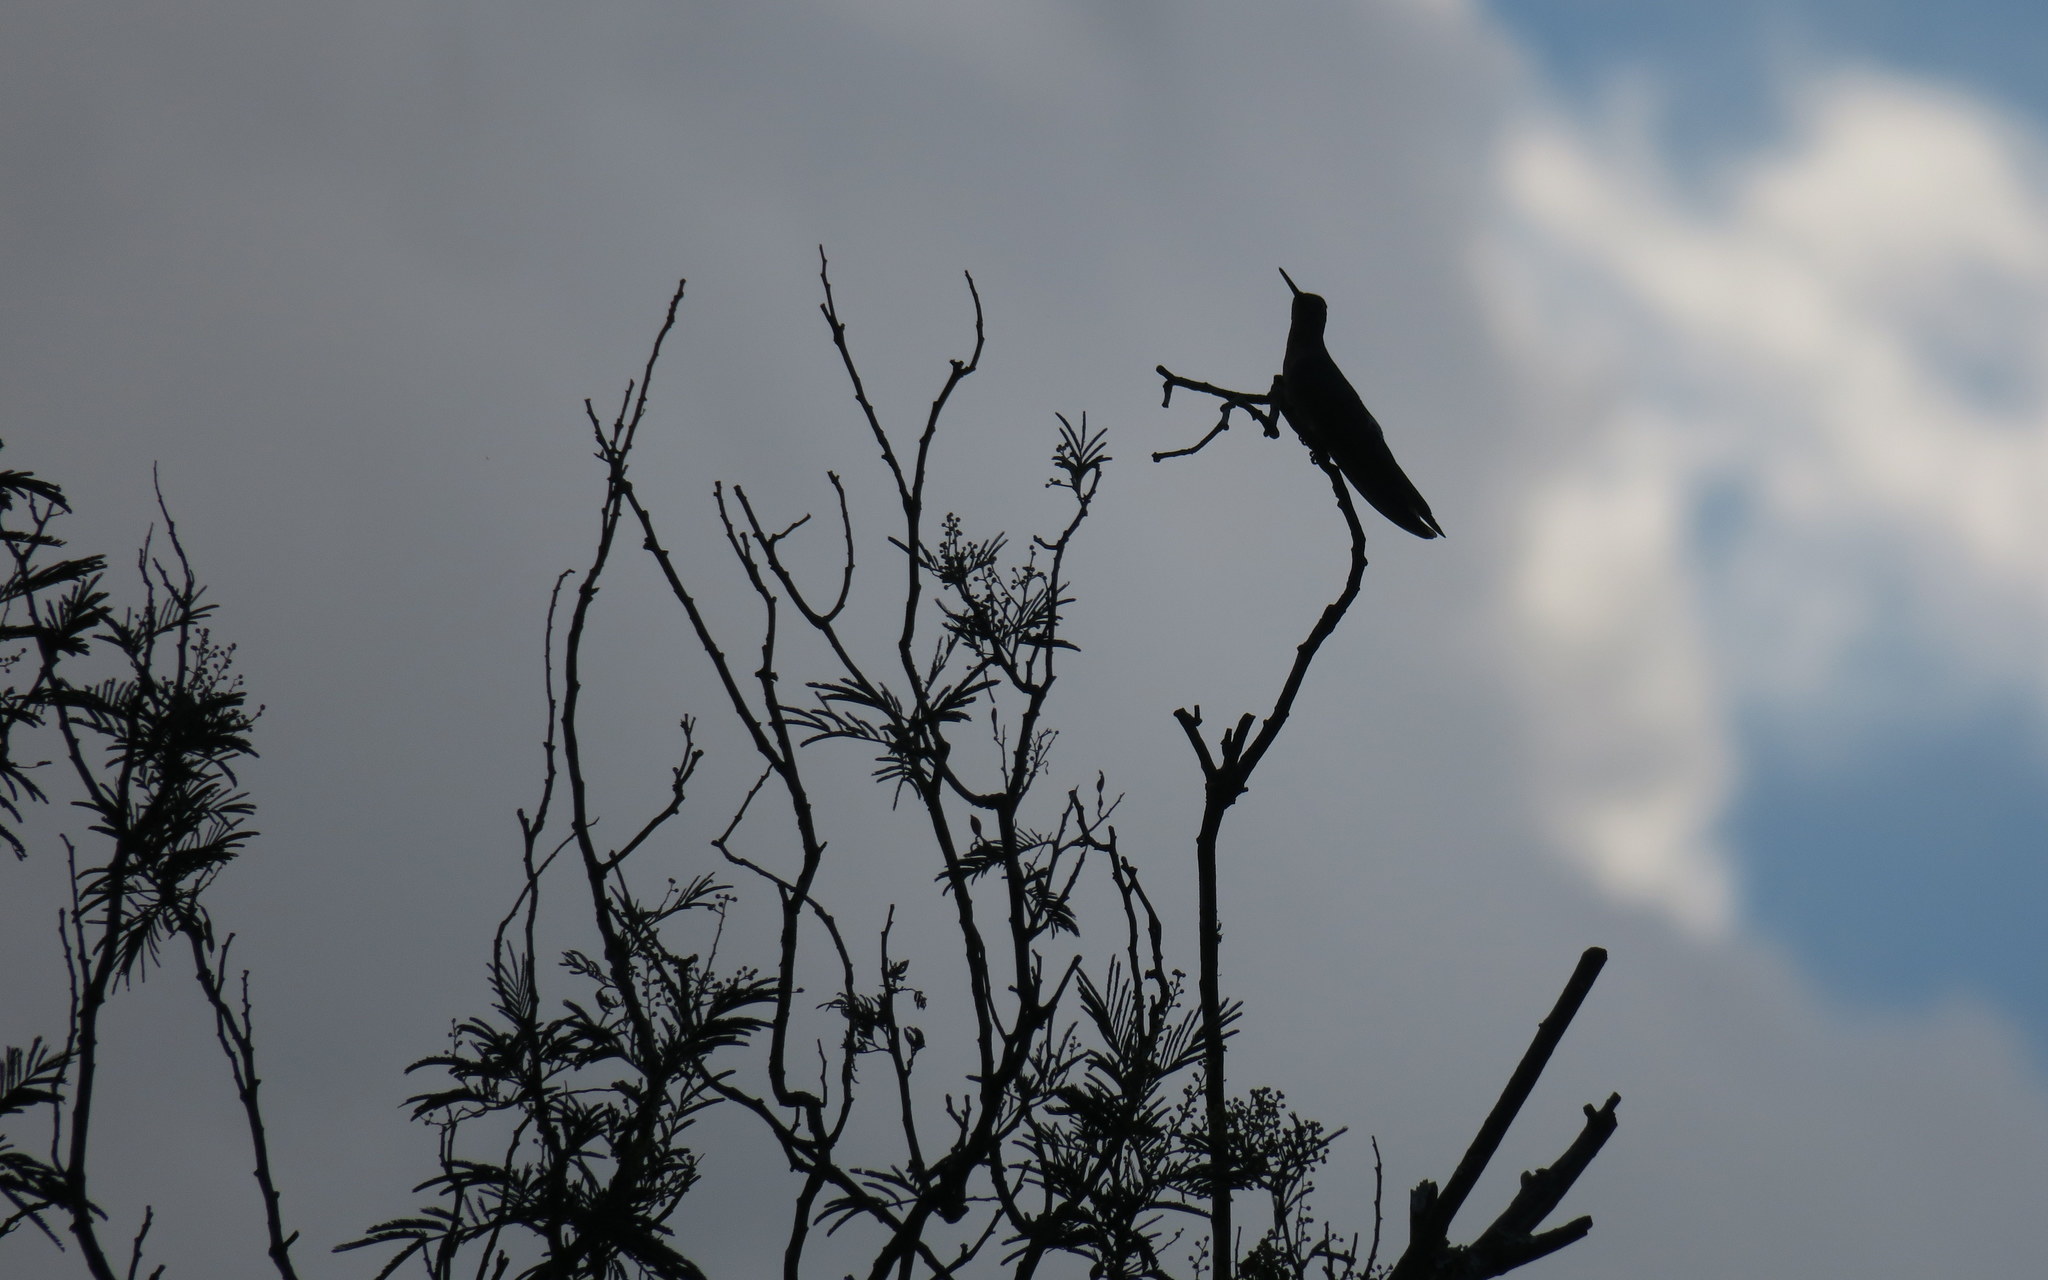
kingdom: Animalia
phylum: Chordata
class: Aves
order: Apodiformes
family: Trochilidae
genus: Patagona
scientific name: Patagona gigas
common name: Giant hummingbird
